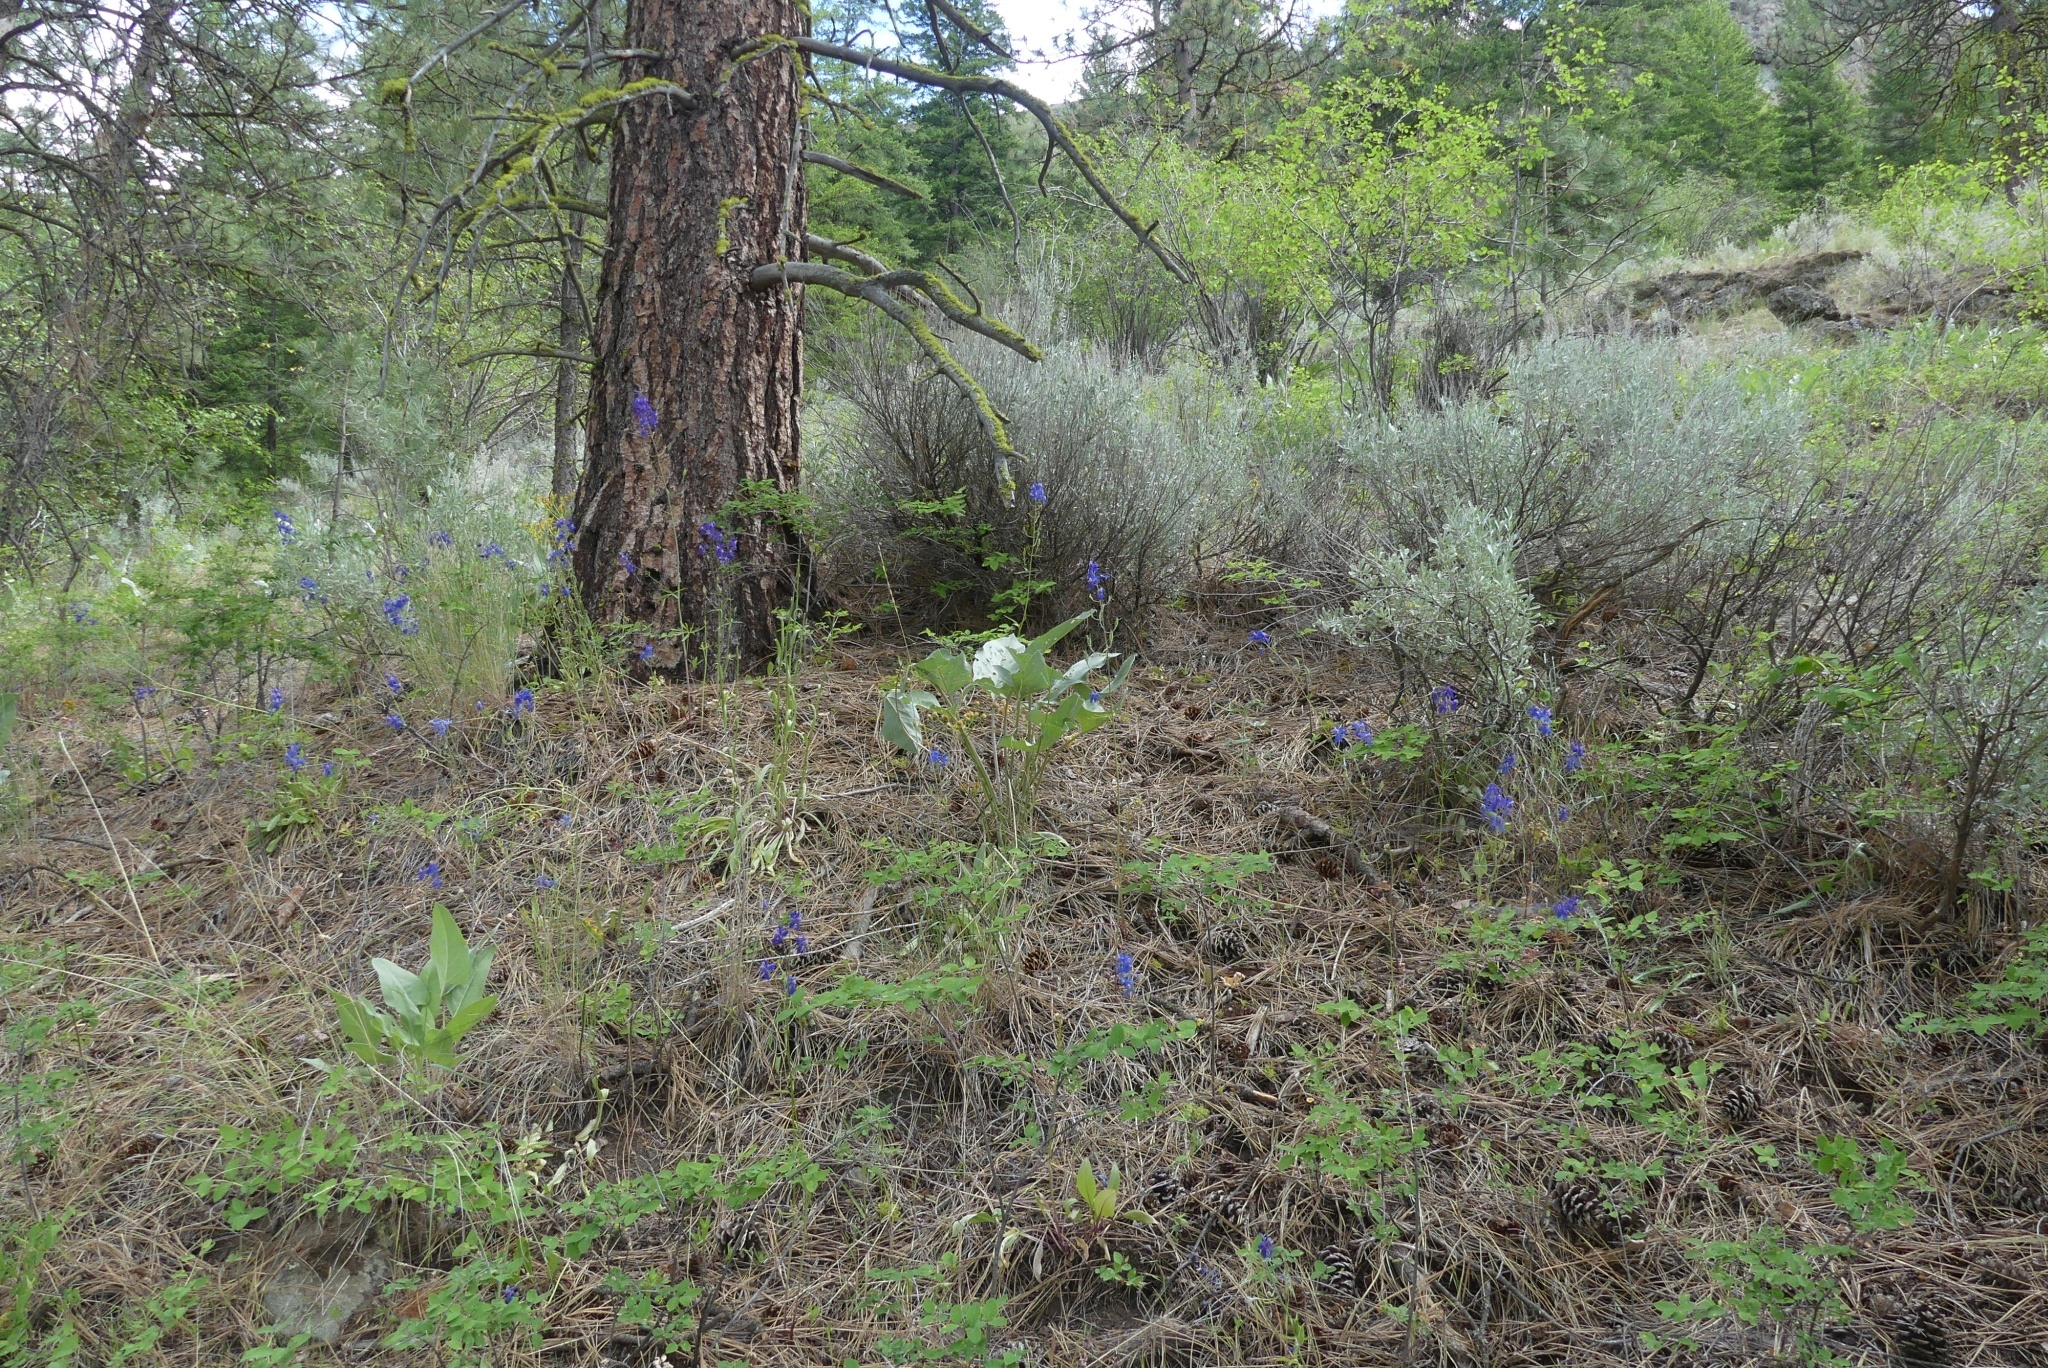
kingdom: Plantae
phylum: Tracheophyta
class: Magnoliopsida
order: Asterales
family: Asteraceae
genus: Wyethia
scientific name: Wyethia sagittata
